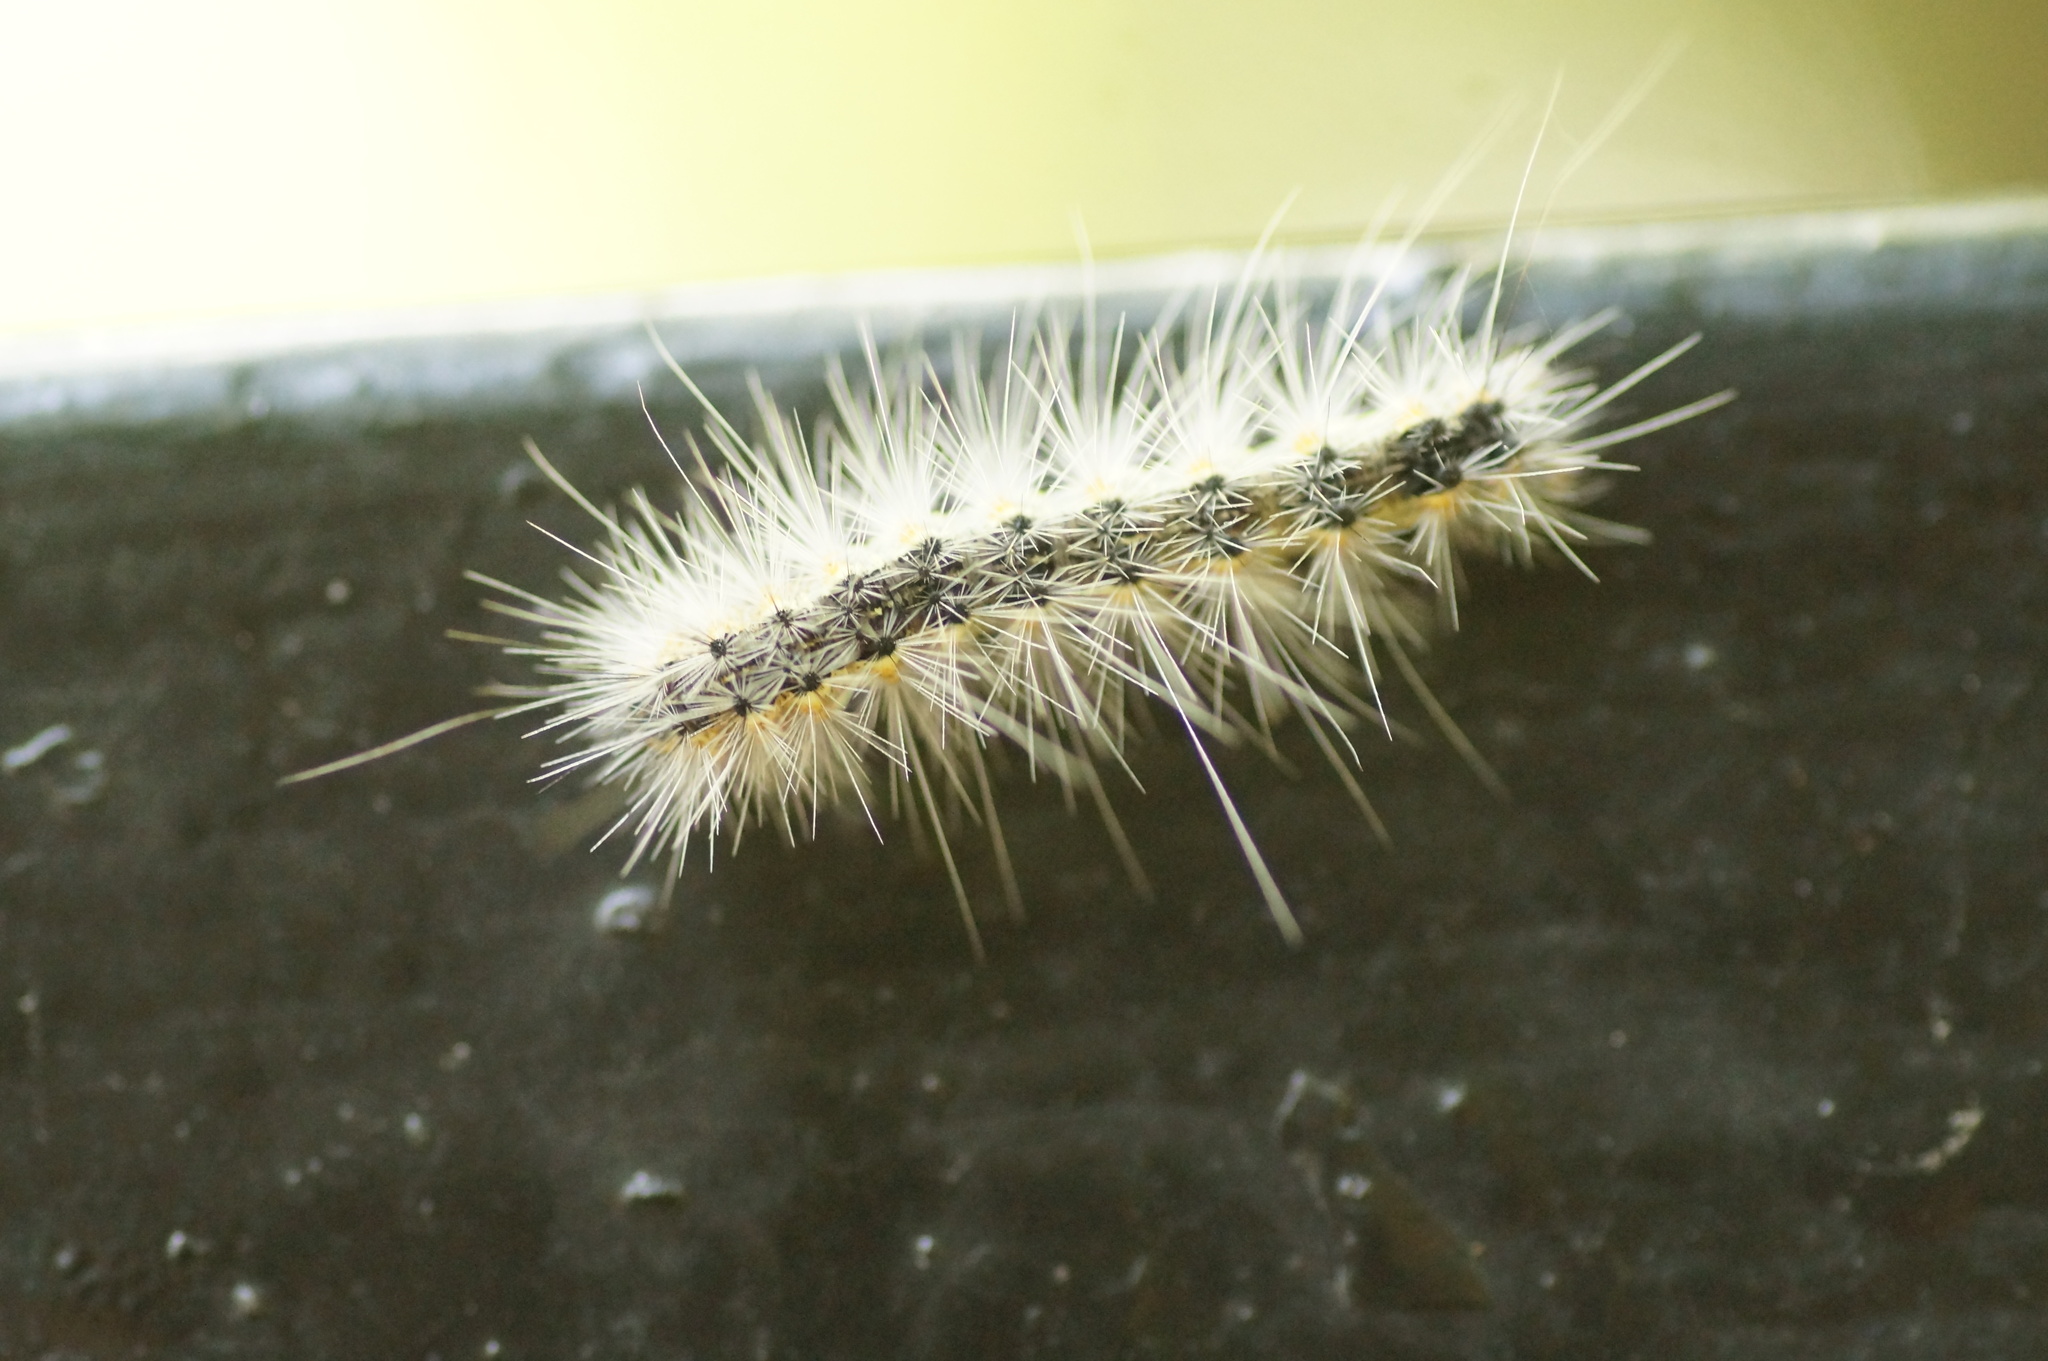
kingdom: Animalia
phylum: Arthropoda
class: Insecta
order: Lepidoptera
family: Erebidae
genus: Hyphantria
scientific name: Hyphantria cunea
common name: American white moth
